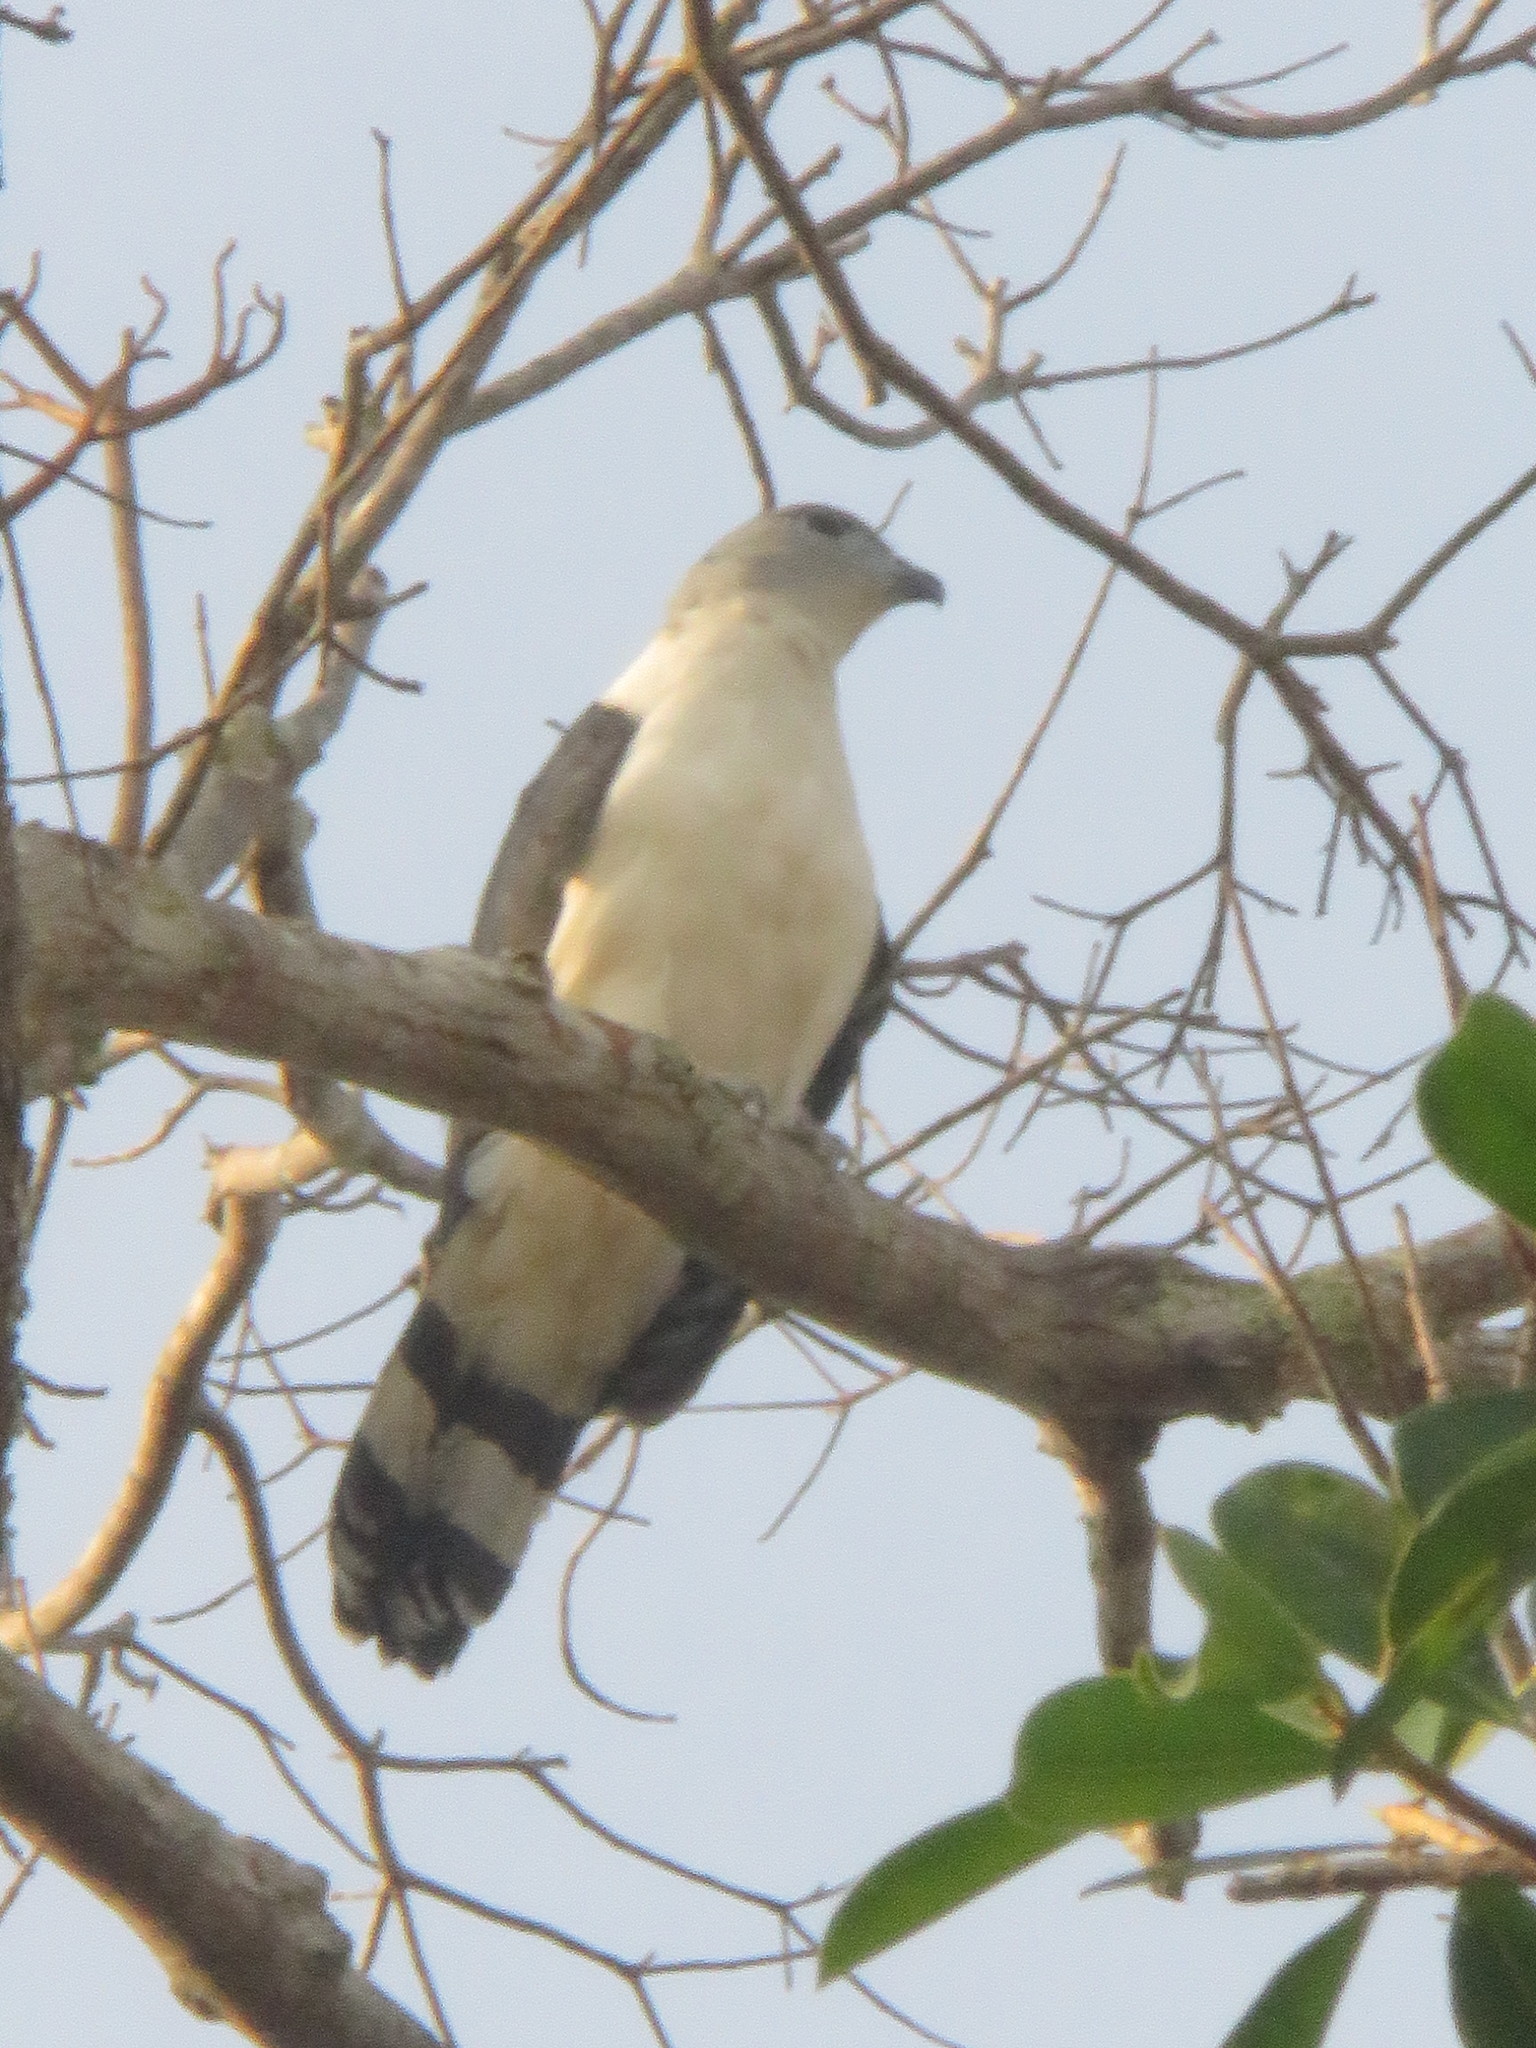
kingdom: Animalia
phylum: Chordata
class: Aves
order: Accipitriformes
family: Accipitridae
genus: Leptodon
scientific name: Leptodon cayanensis
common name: Gray-headed kite
